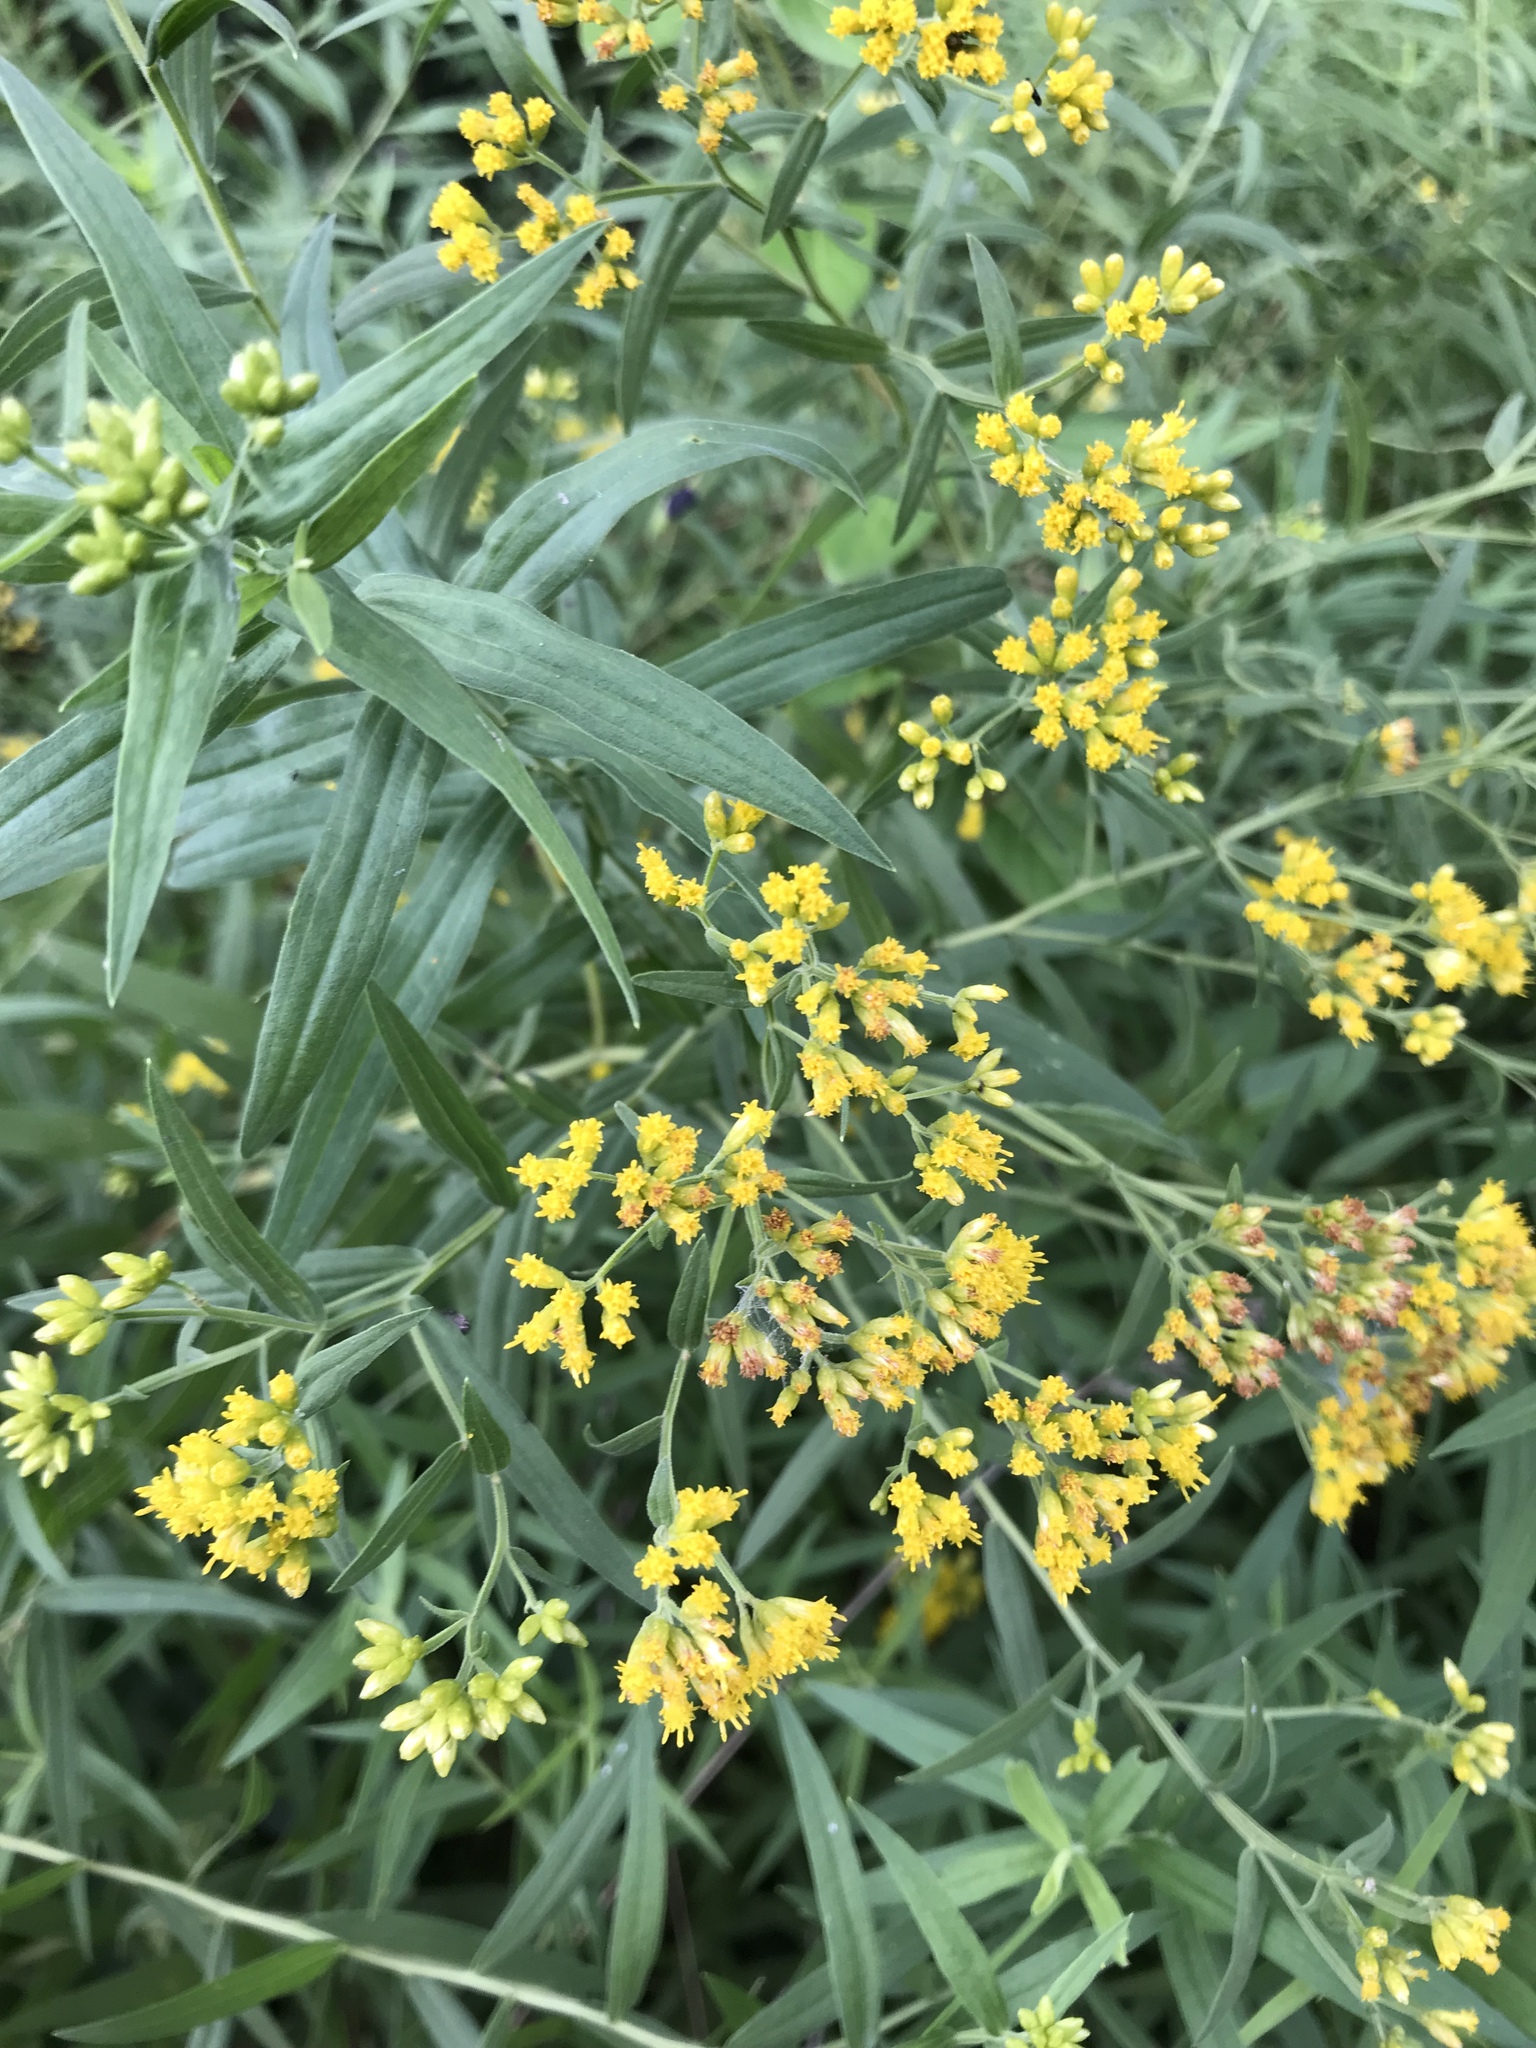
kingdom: Plantae
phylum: Tracheophyta
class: Magnoliopsida
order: Asterales
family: Asteraceae
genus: Euthamia
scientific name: Euthamia graminifolia
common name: Common goldentop
